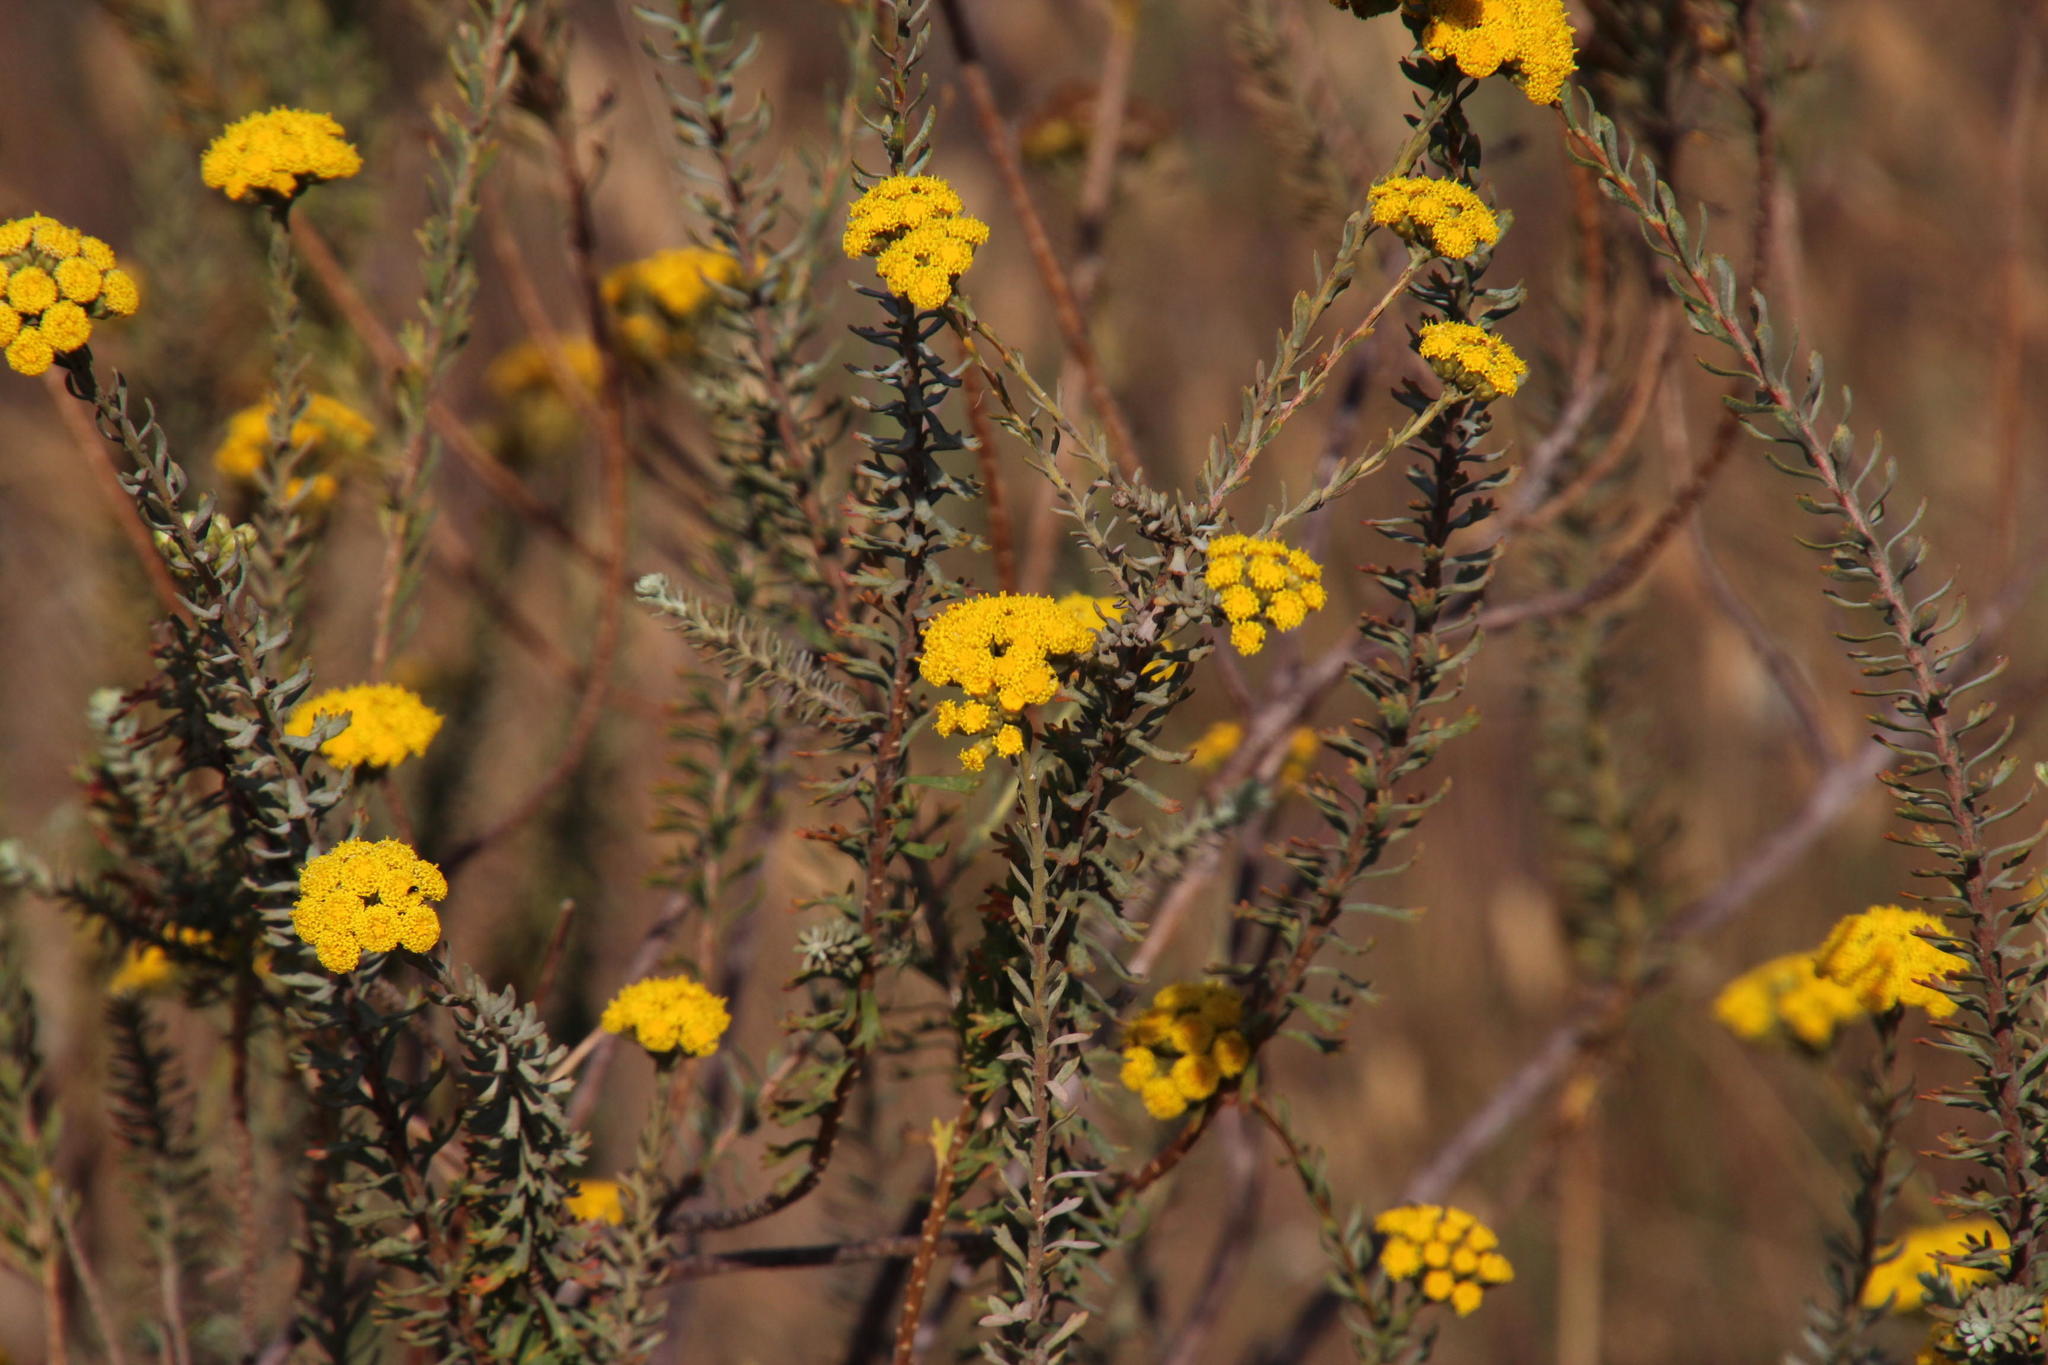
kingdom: Plantae
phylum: Tracheophyta
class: Magnoliopsida
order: Asterales
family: Asteraceae
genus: Athanasia
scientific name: Athanasia trifurcata
